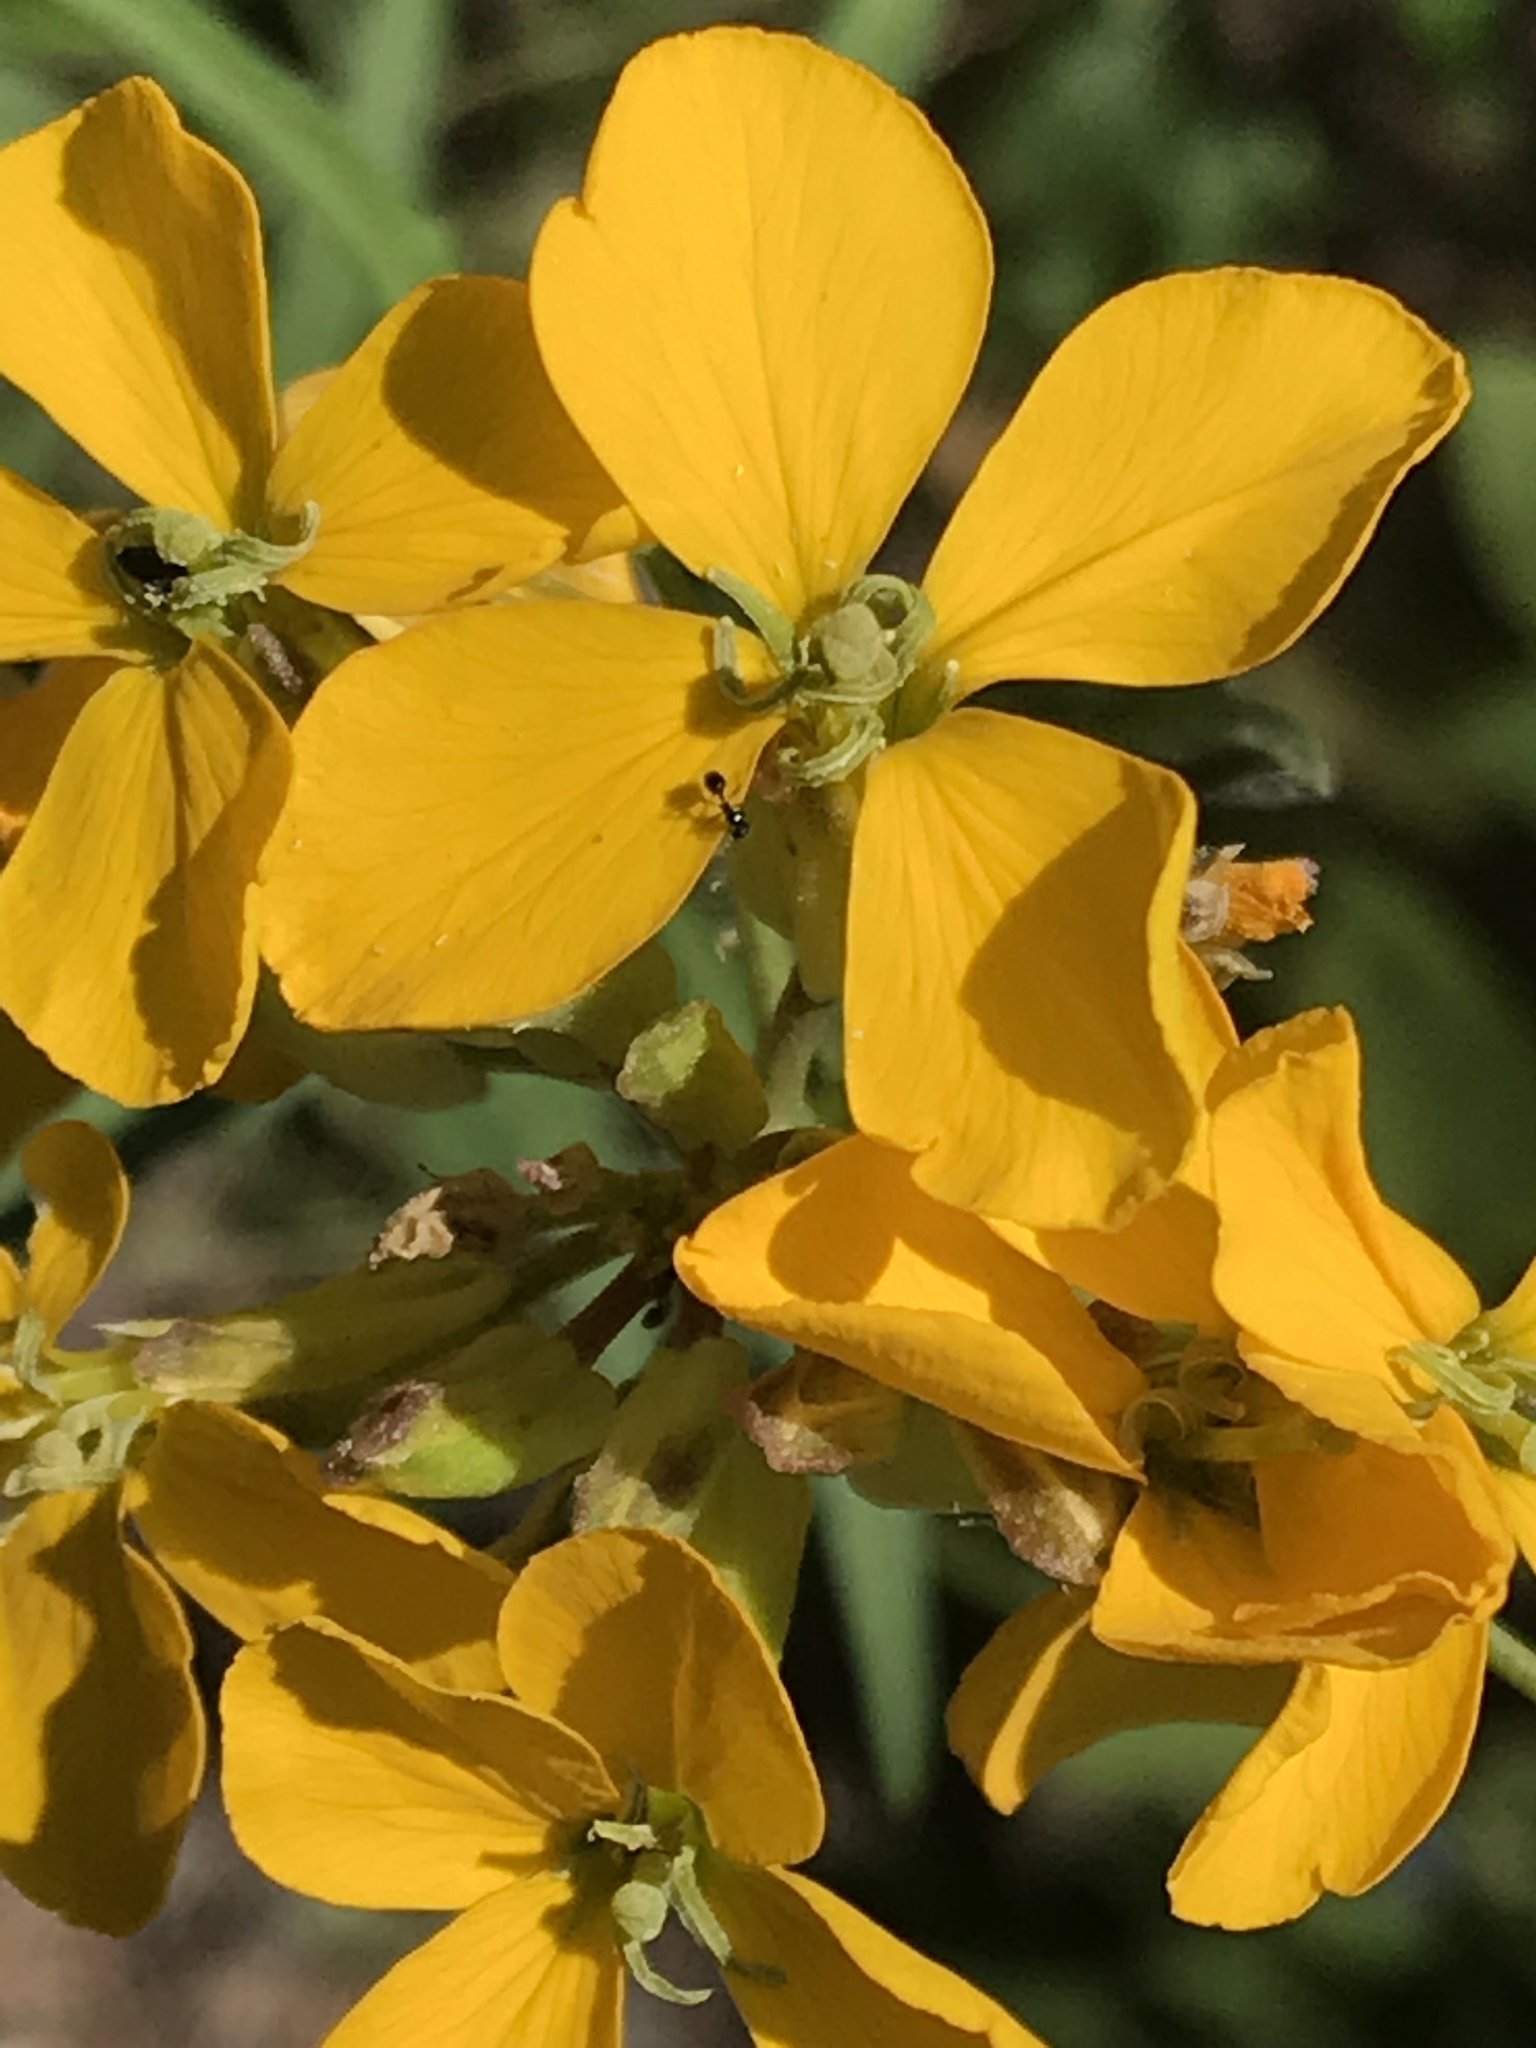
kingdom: Plantae
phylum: Tracheophyta
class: Magnoliopsida
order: Brassicales
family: Brassicaceae
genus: Erysimum
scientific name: Erysimum capitatum
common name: Western wallflower
